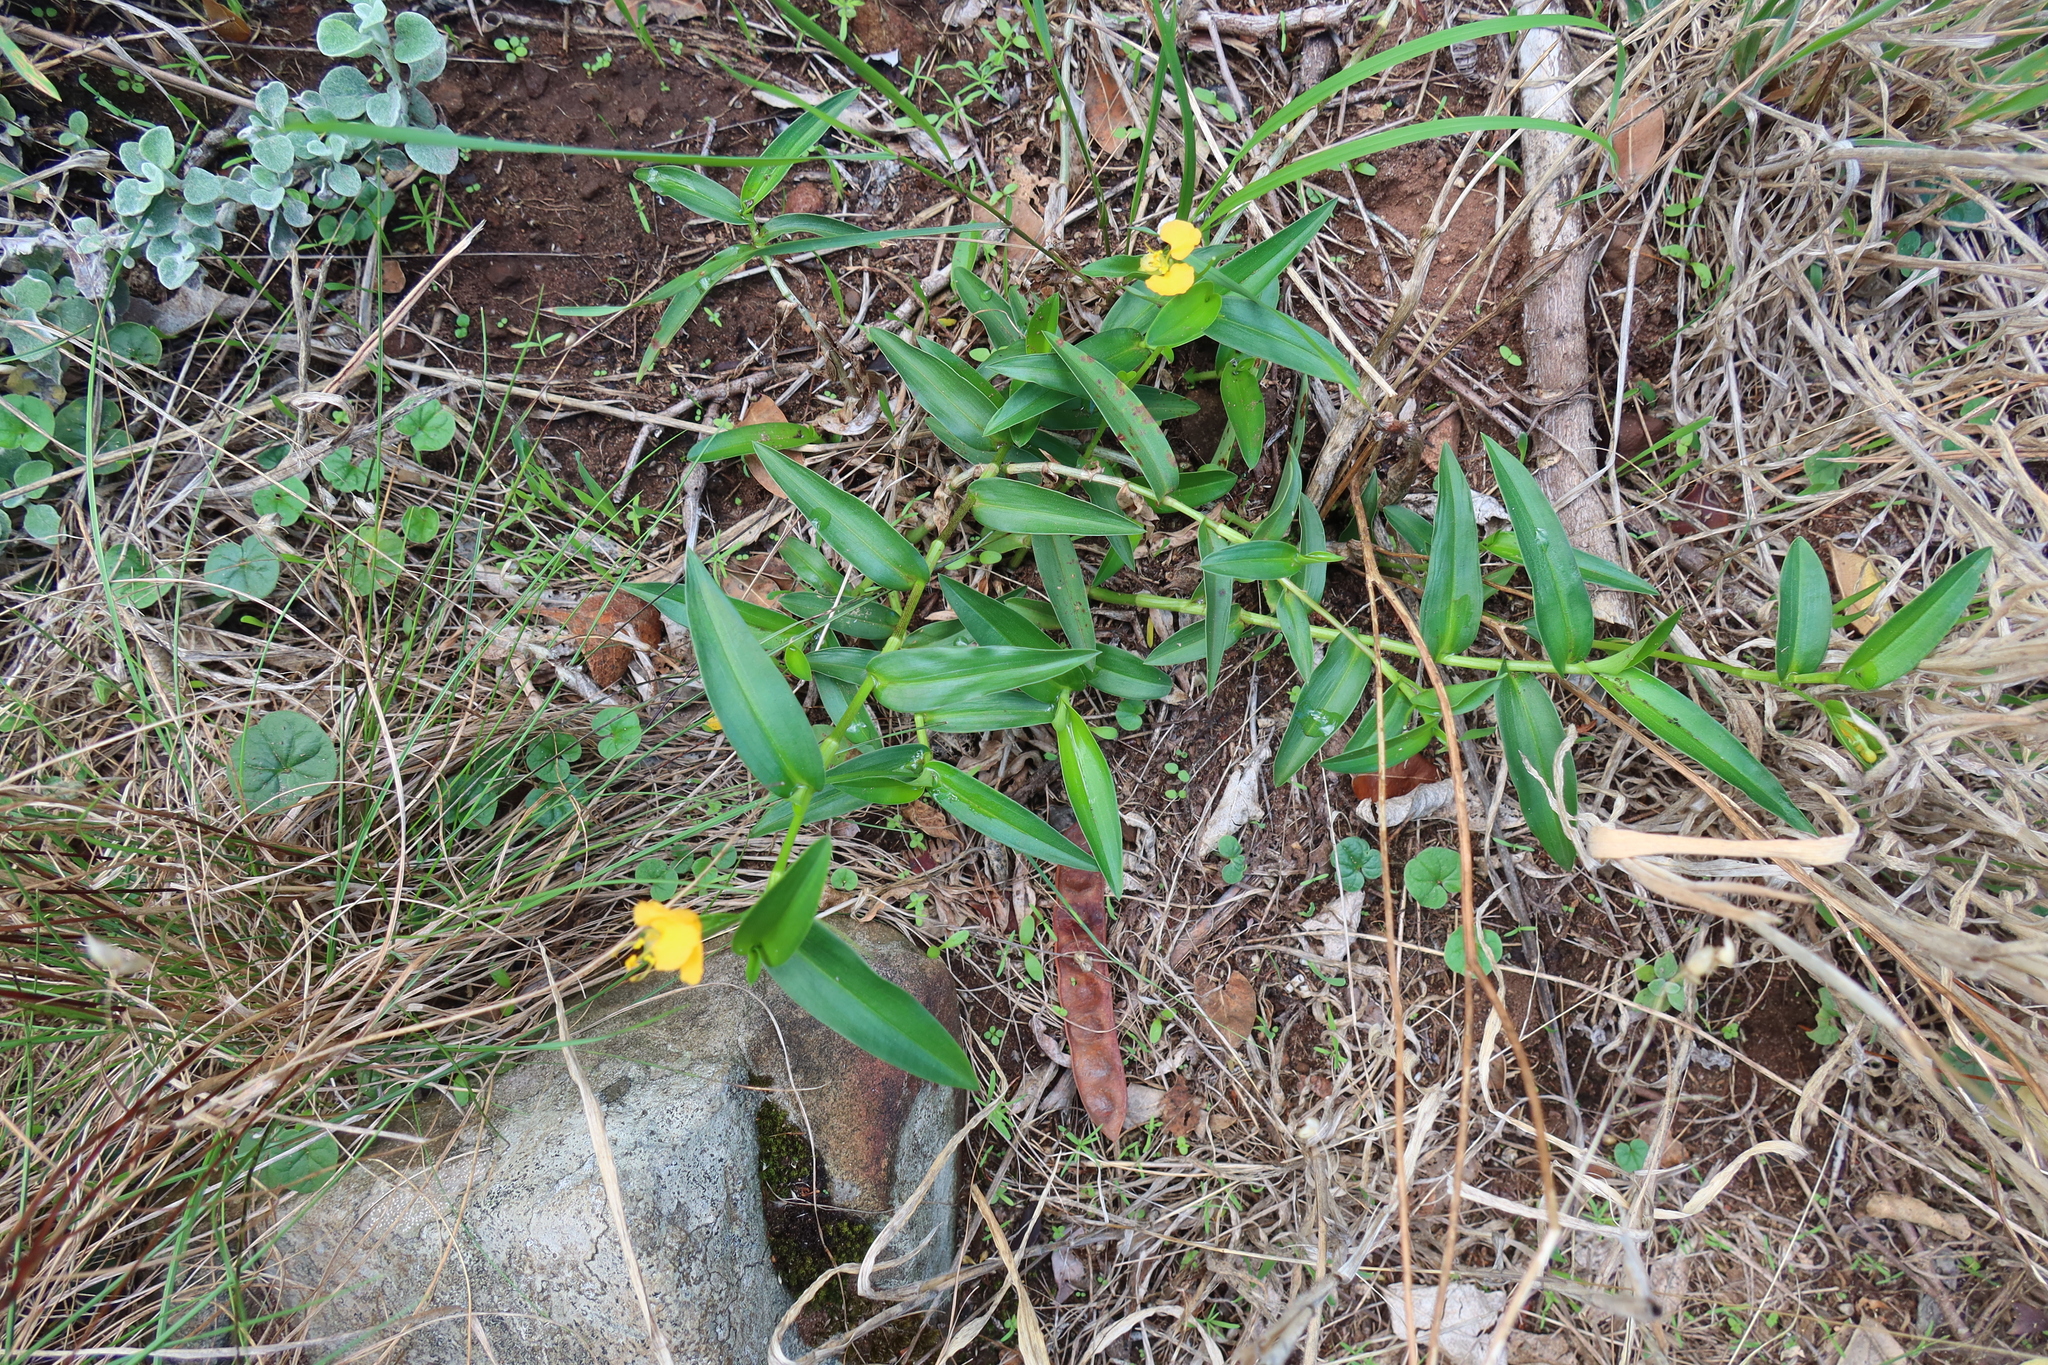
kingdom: Plantae
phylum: Tracheophyta
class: Liliopsida
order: Commelinales
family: Commelinaceae
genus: Commelina
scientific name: Commelina africana
